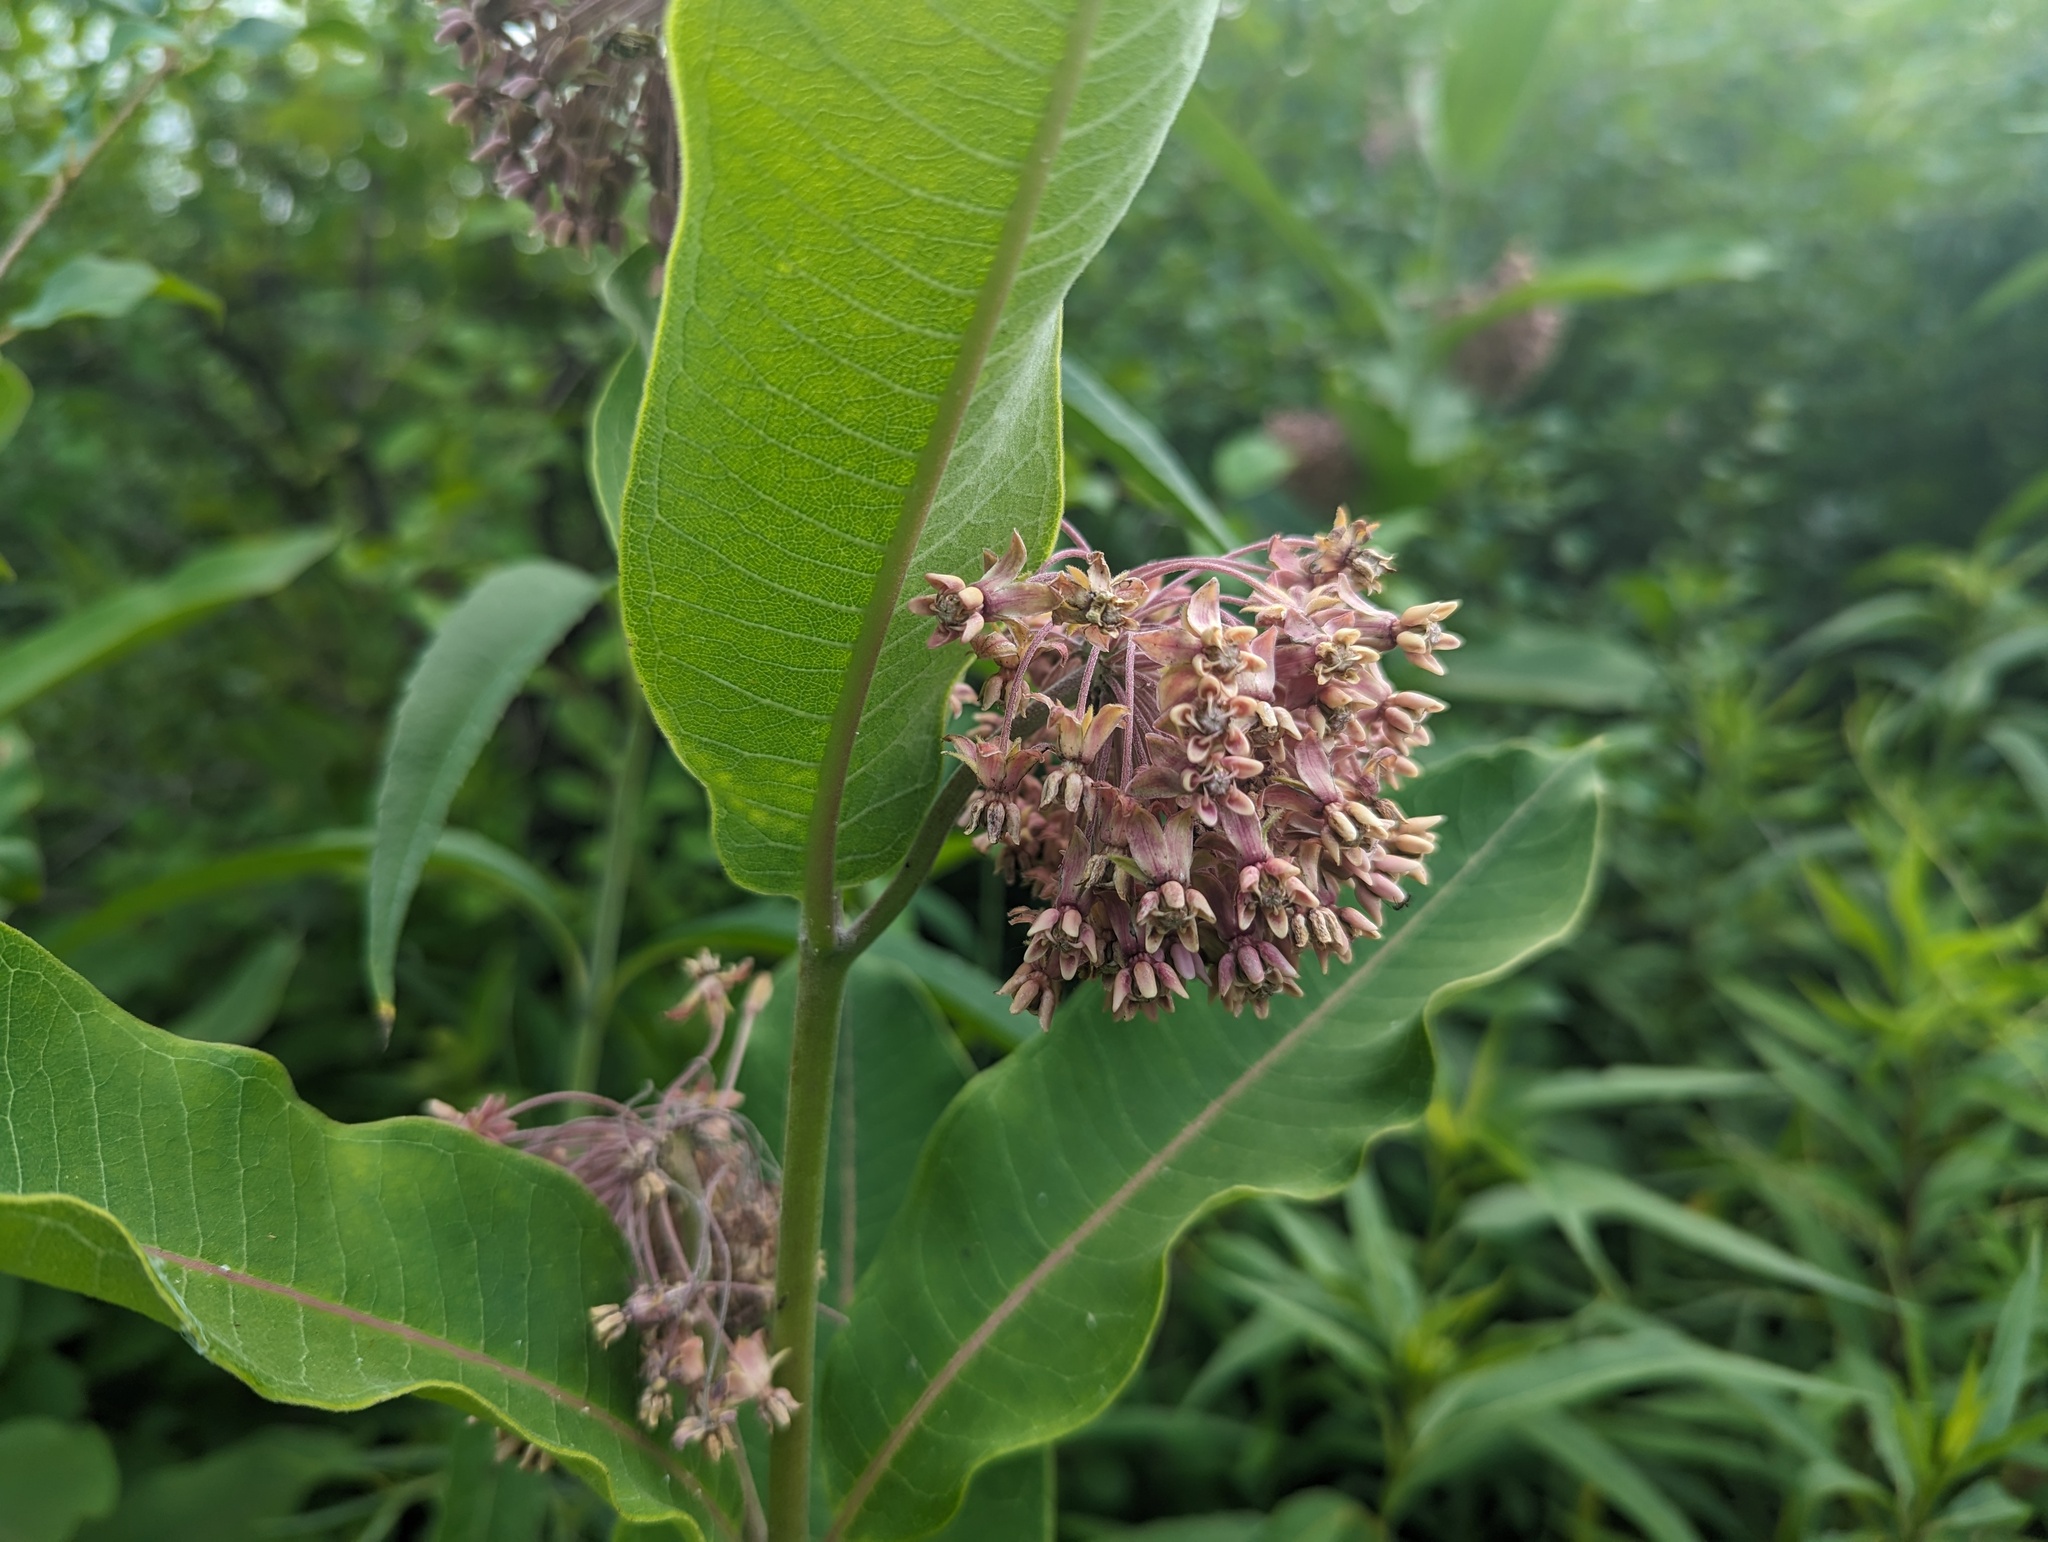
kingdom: Plantae
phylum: Tracheophyta
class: Magnoliopsida
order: Gentianales
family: Apocynaceae
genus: Asclepias
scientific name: Asclepias syriaca
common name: Common milkweed
